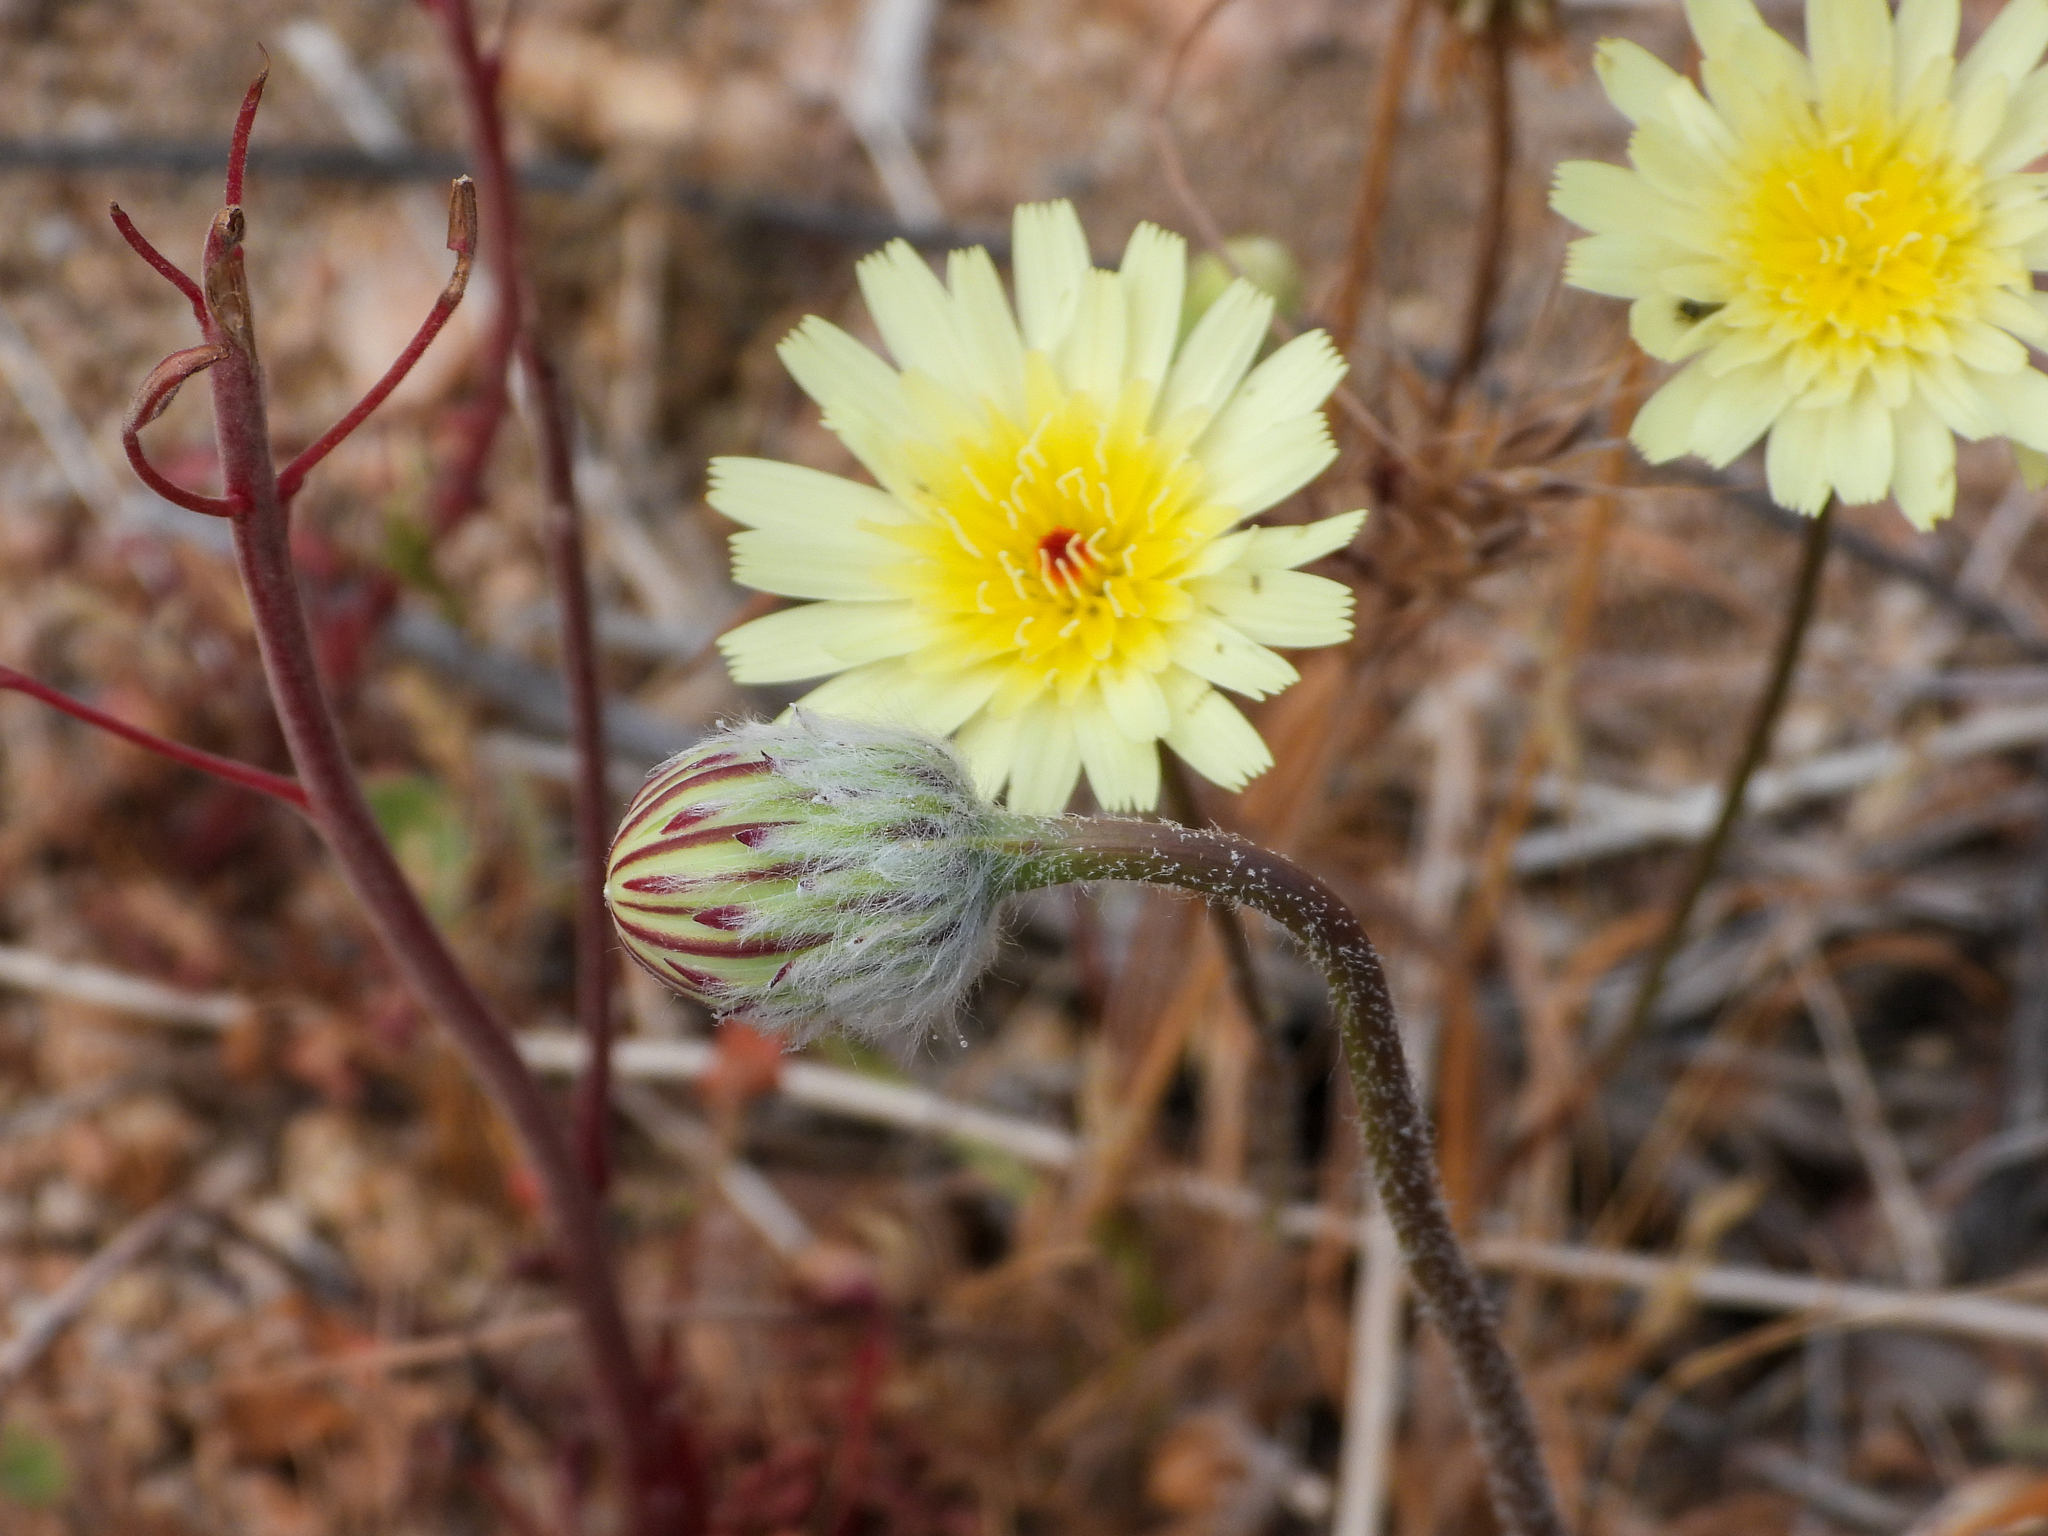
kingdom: Plantae
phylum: Tracheophyta
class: Magnoliopsida
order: Asterales
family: Asteraceae
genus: Malacothrix
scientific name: Malacothrix glabrata
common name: Smooth desert-dandelion
